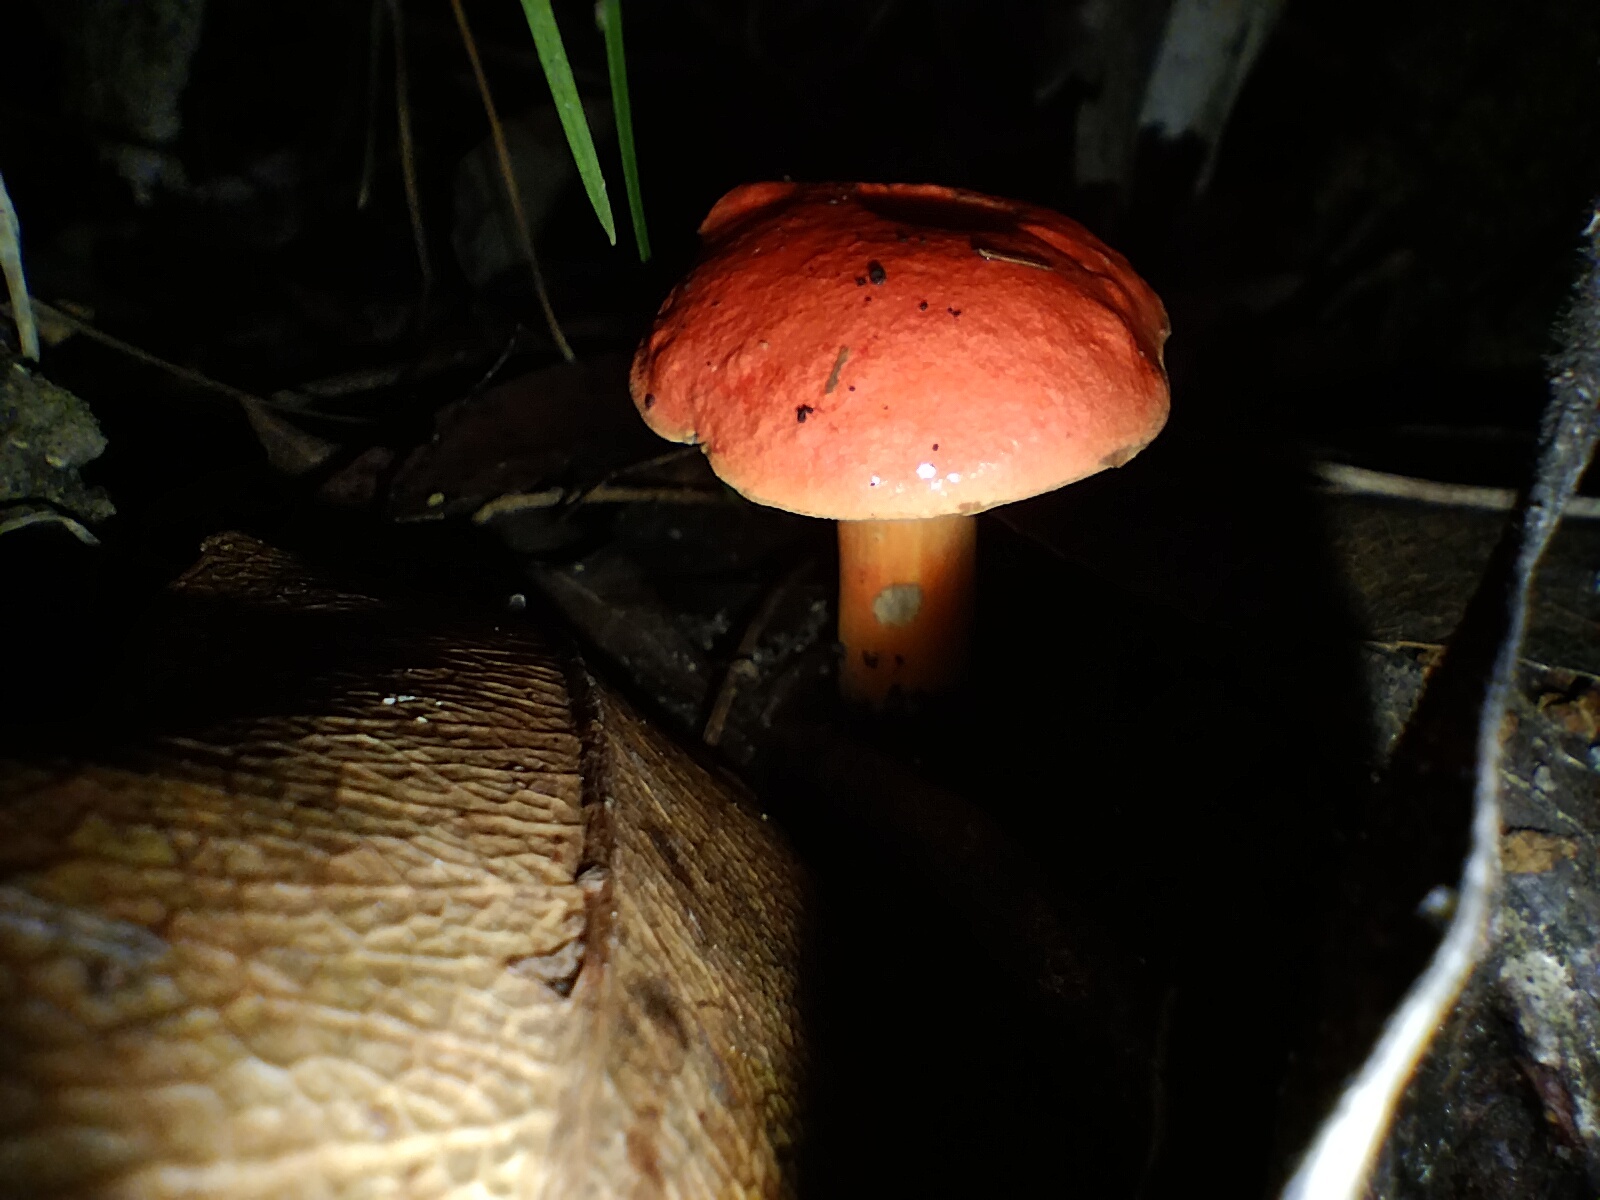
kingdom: Fungi
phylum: Basidiomycota
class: Agaricomycetes
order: Boletales
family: Boletaceae
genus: Tylopilus
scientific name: Tylopilus balloui
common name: Burnt-orange bolete
